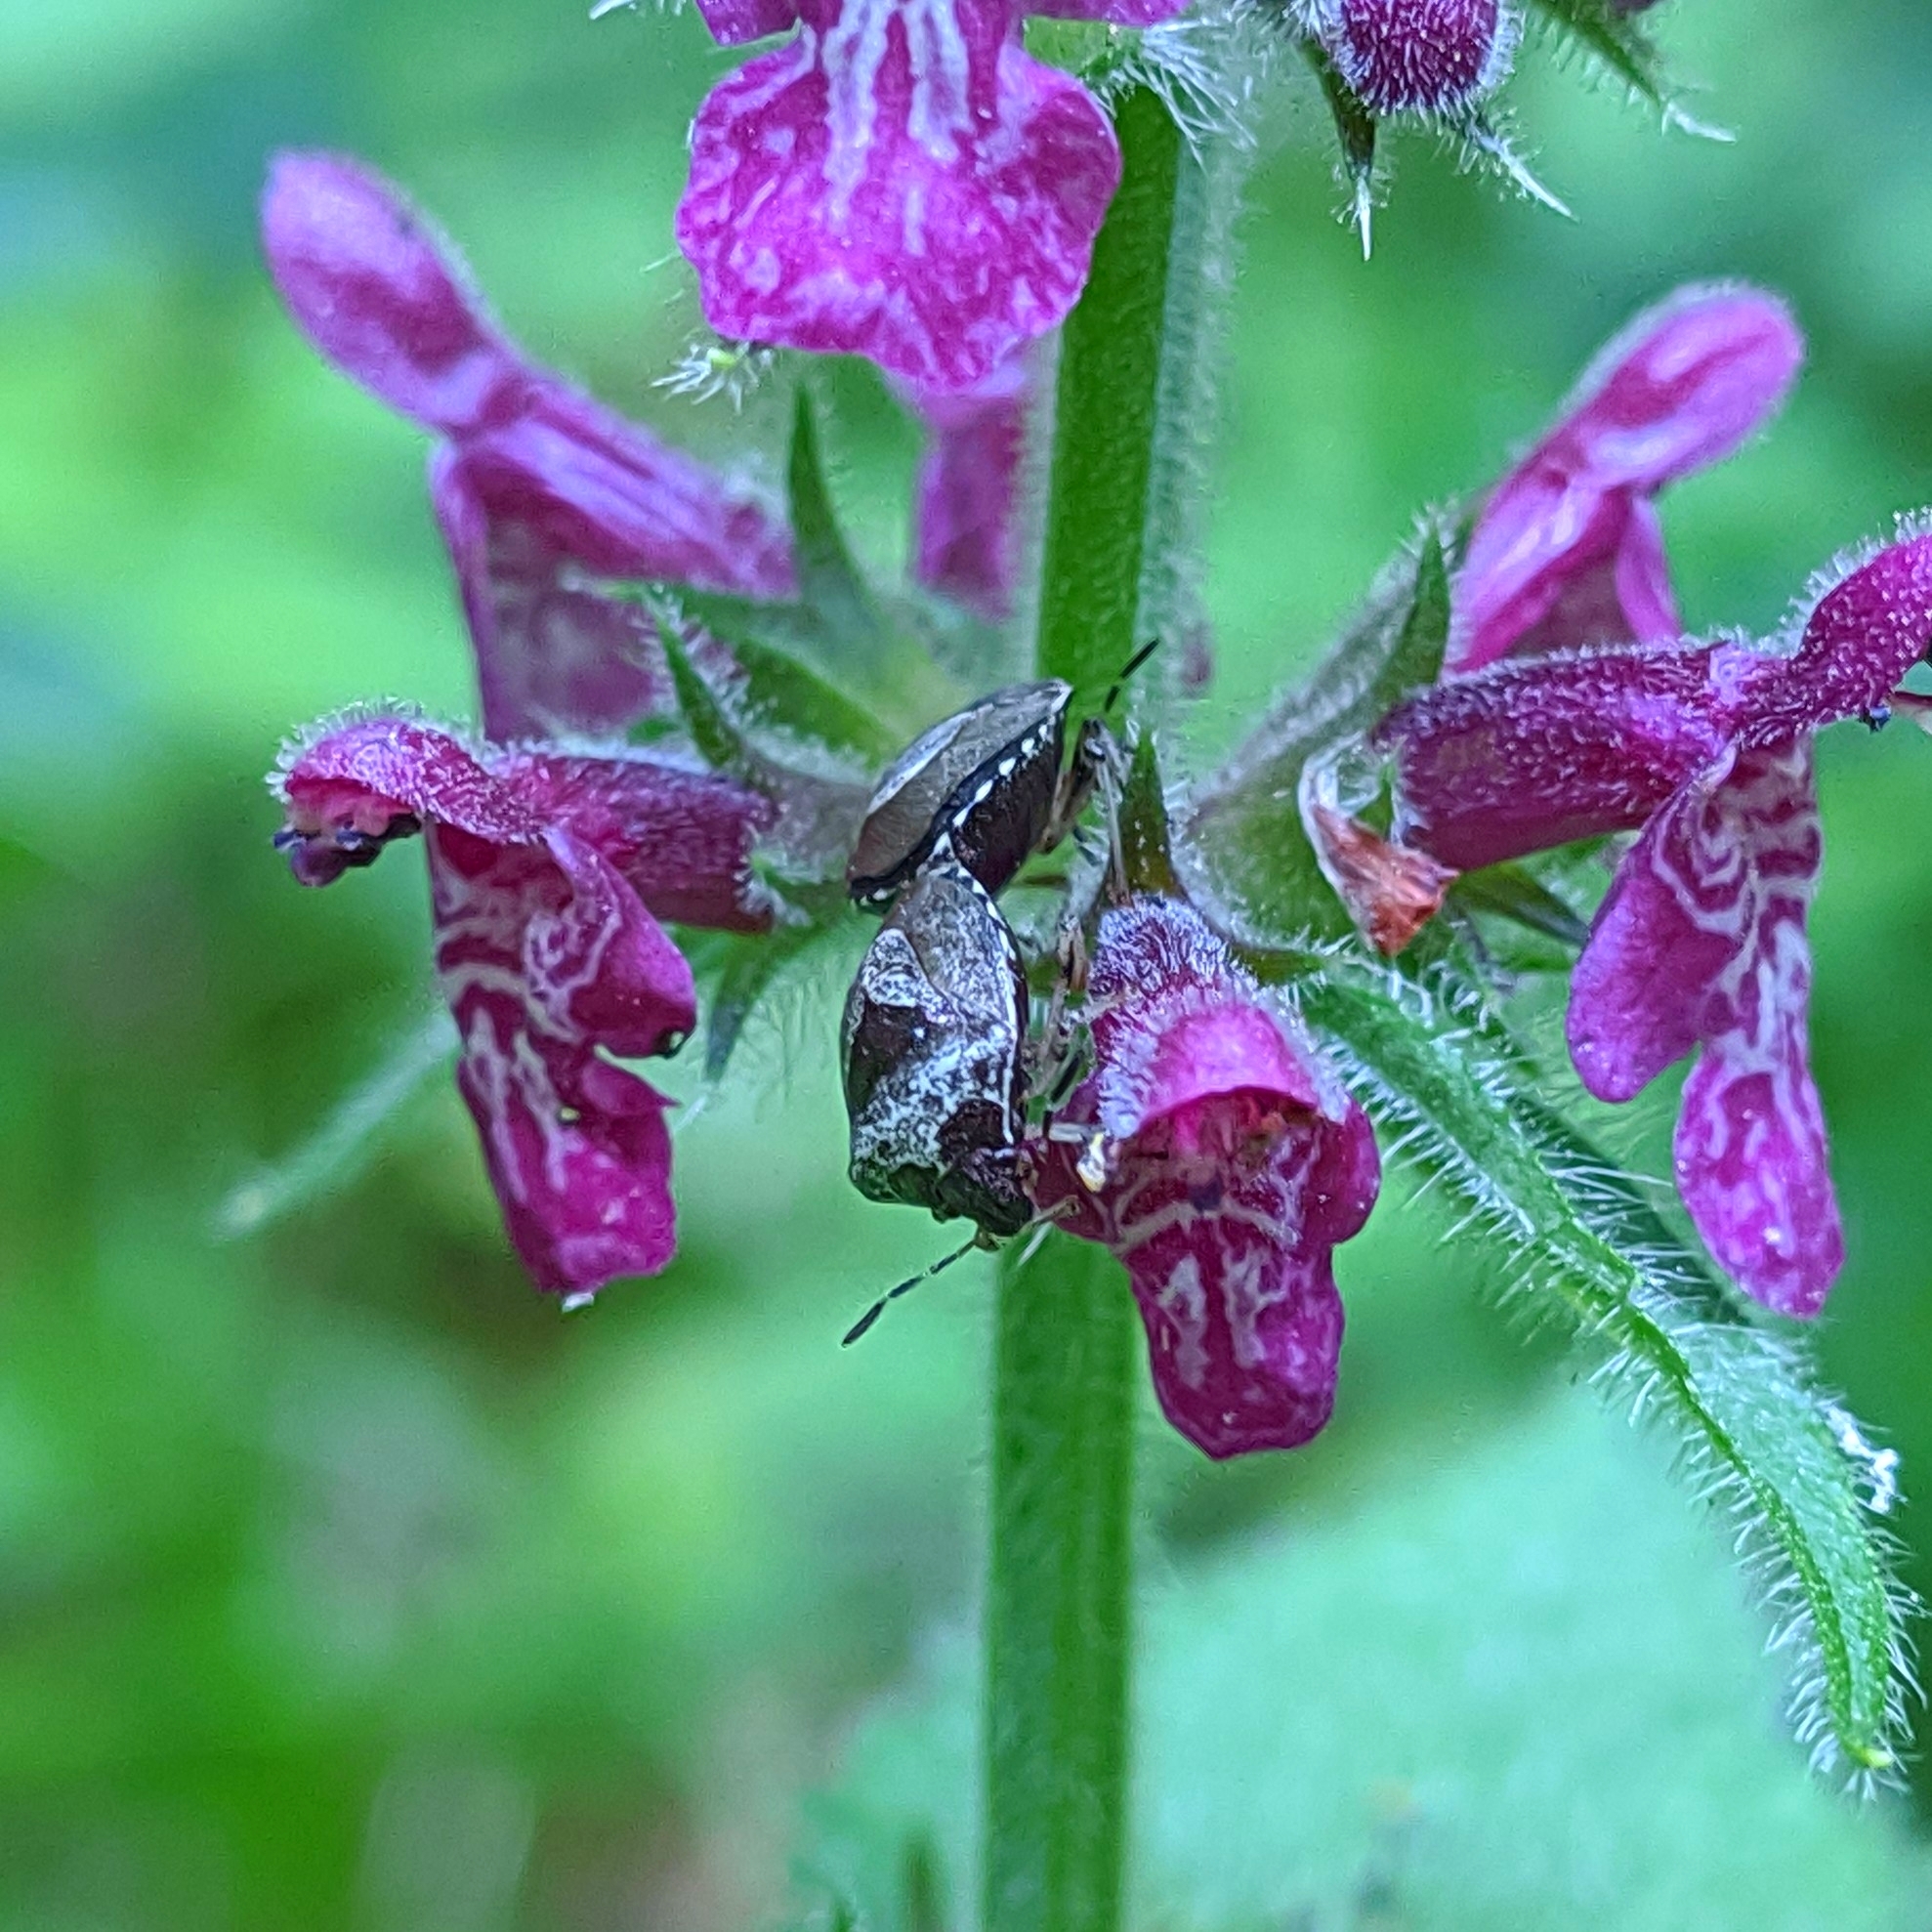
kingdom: Animalia
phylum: Arthropoda
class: Insecta
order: Hemiptera
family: Pentatomidae
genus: Eysarcoris
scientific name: Eysarcoris venustissimus
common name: Woundwort shieldbug
